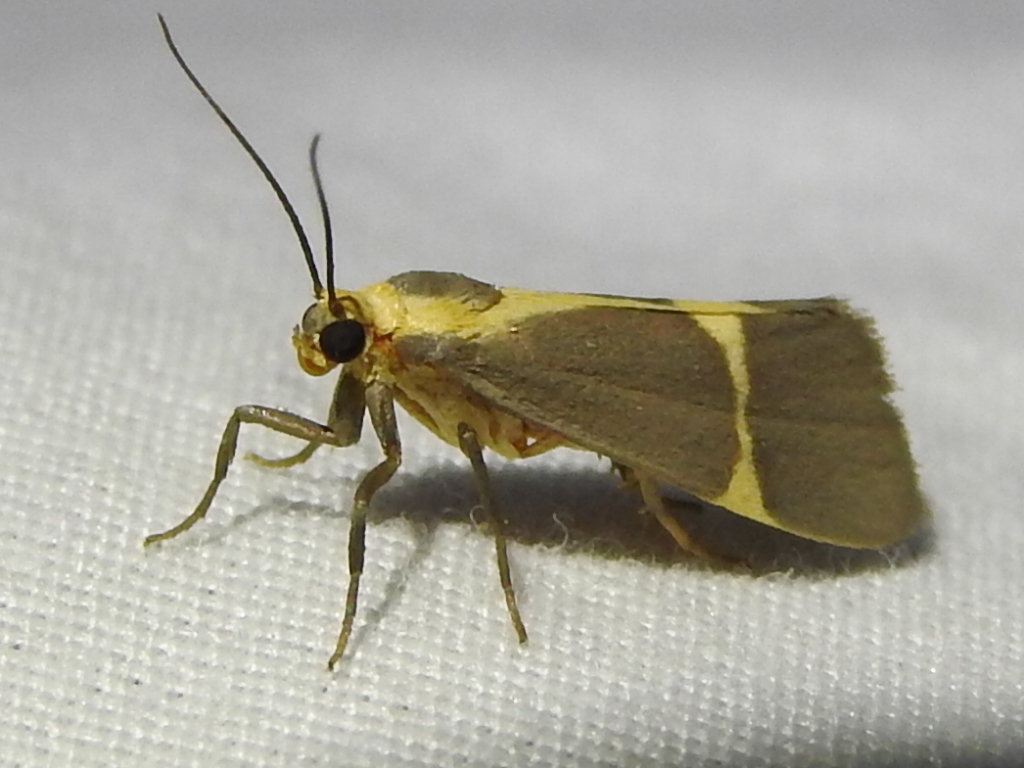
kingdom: Animalia
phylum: Arthropoda
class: Insecta
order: Lepidoptera
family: Erebidae
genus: Cisthene
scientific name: Cisthene tenuifascia
